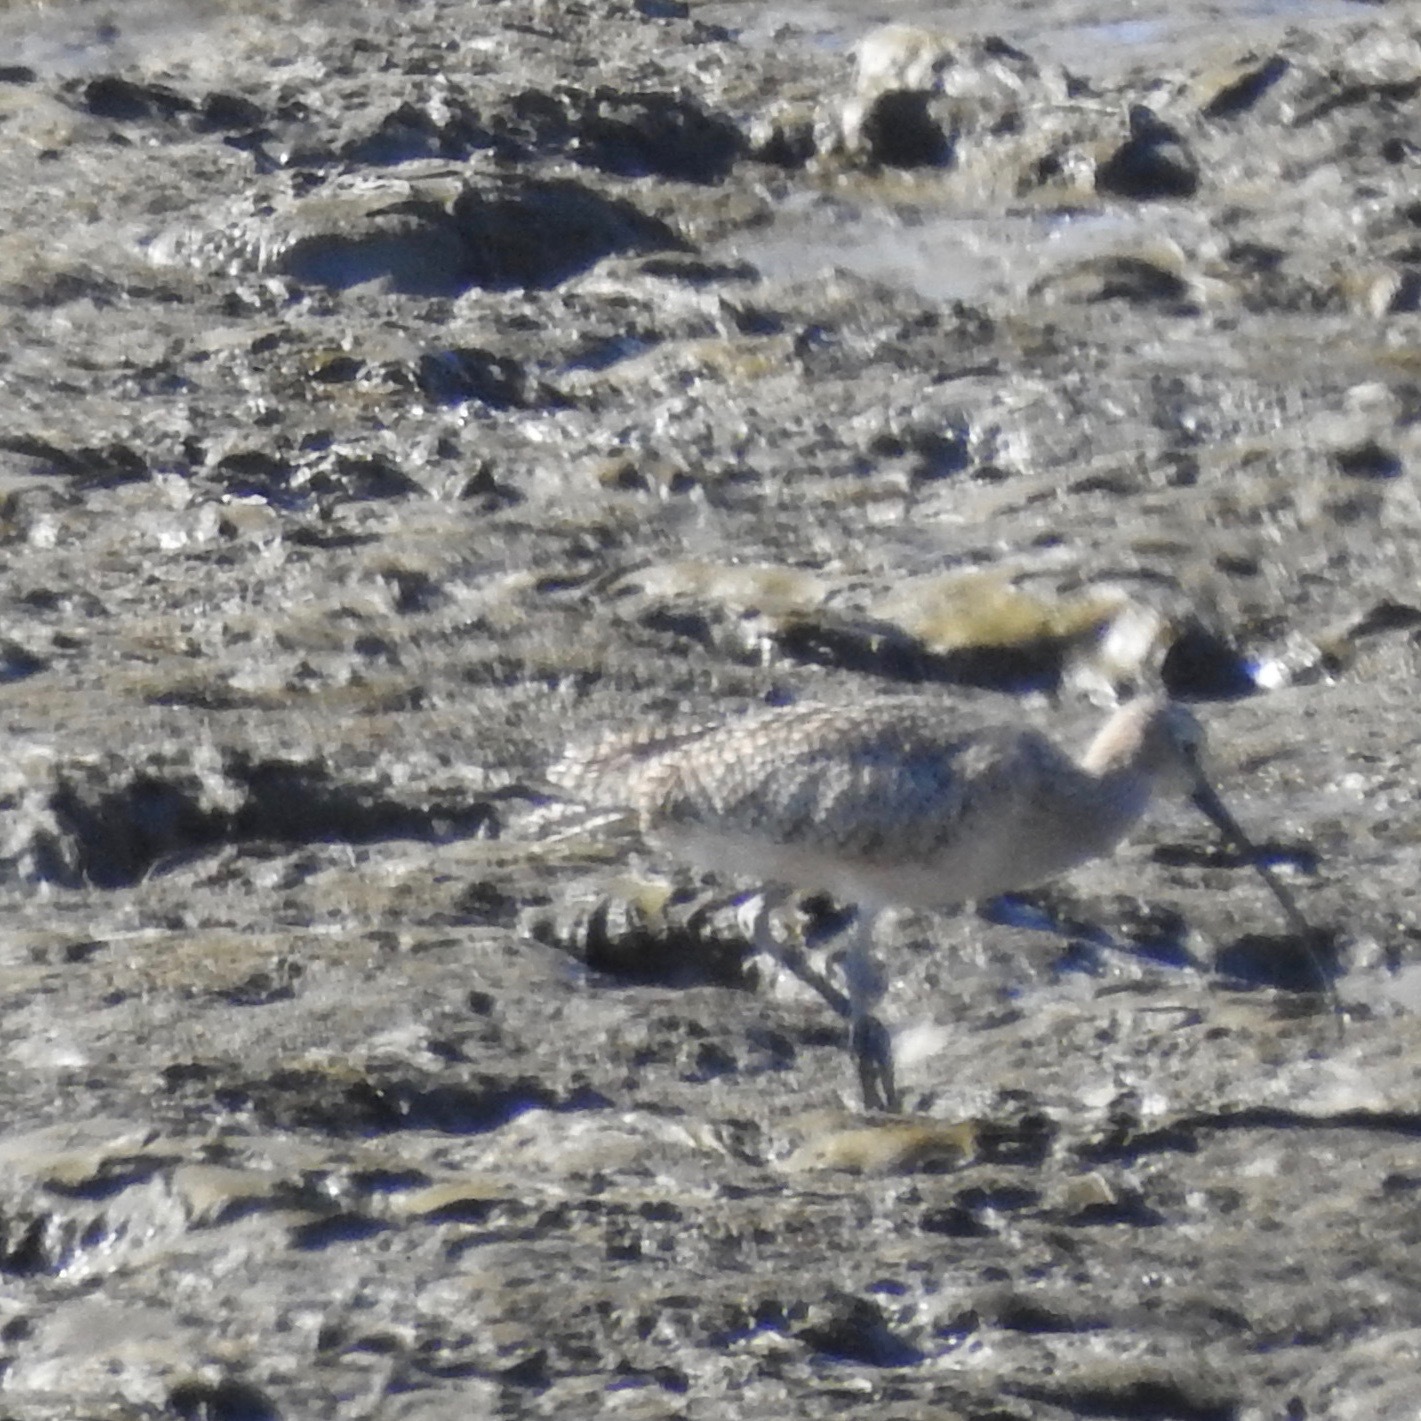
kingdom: Animalia
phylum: Chordata
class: Aves
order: Charadriiformes
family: Scolopacidae
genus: Numenius
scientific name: Numenius americanus
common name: Long-billed curlew
